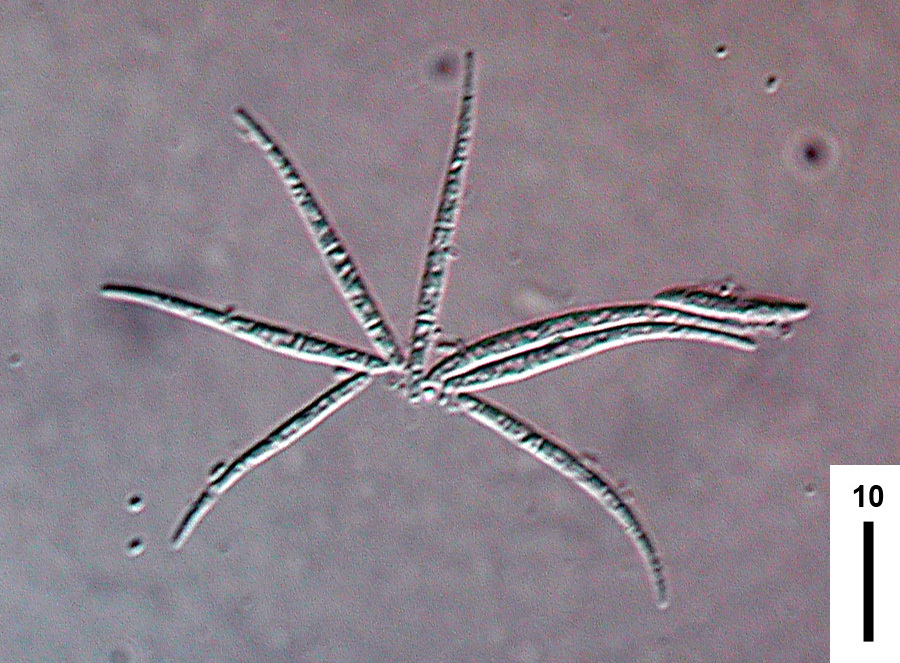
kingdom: Fungi
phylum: Ascomycota
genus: Magdalaenaea
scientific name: Magdalaenaea monogramma
